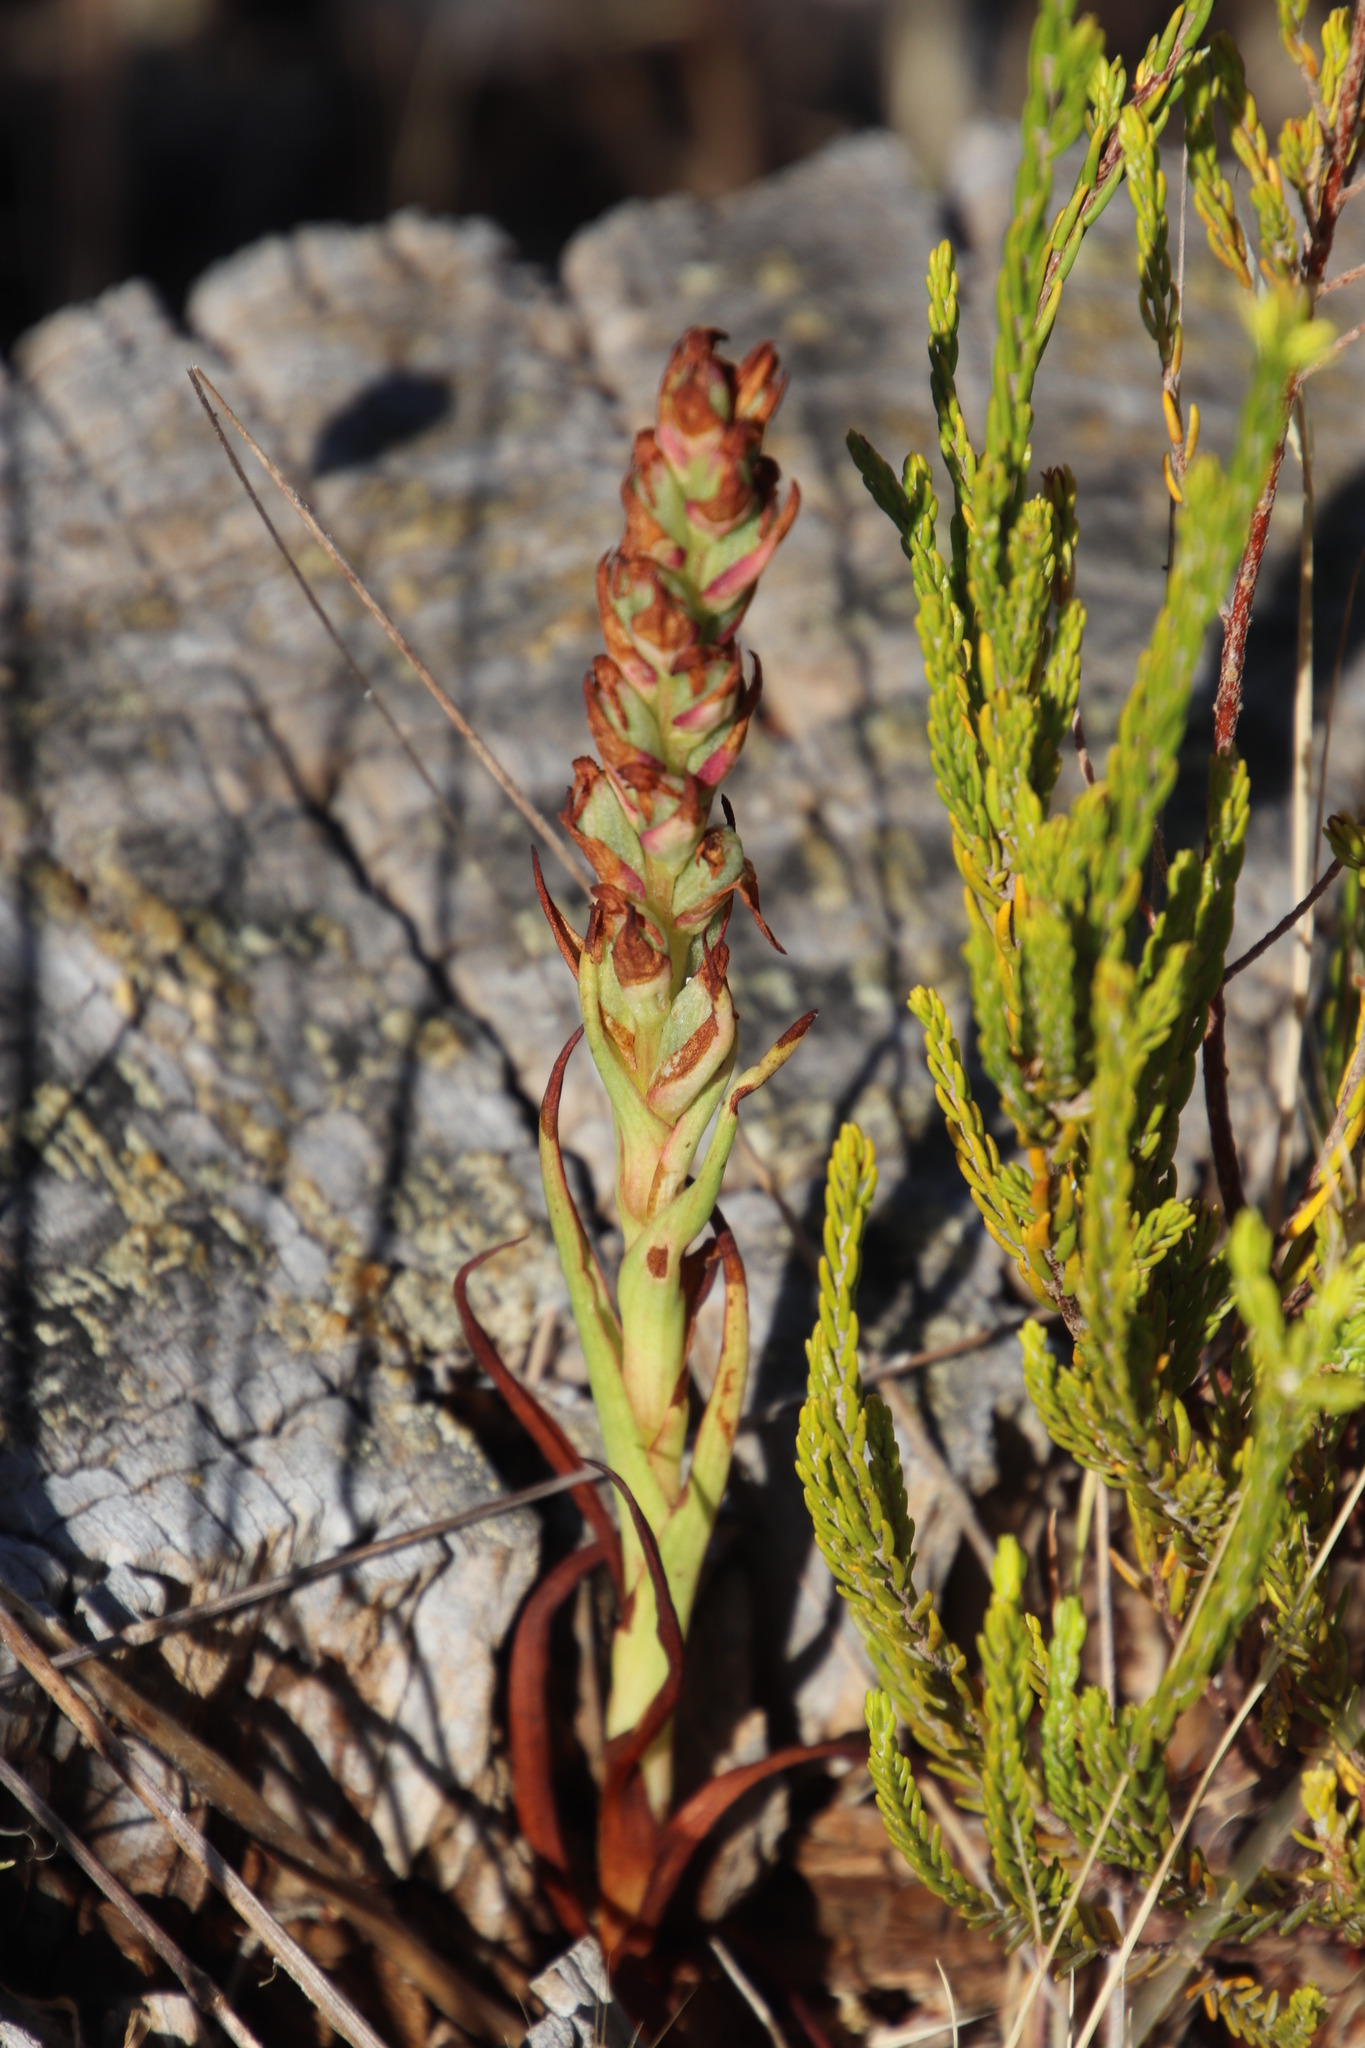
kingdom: Plantae
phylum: Tracheophyta
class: Liliopsida
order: Asparagales
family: Orchidaceae
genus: Disa
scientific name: Disa bracteata
